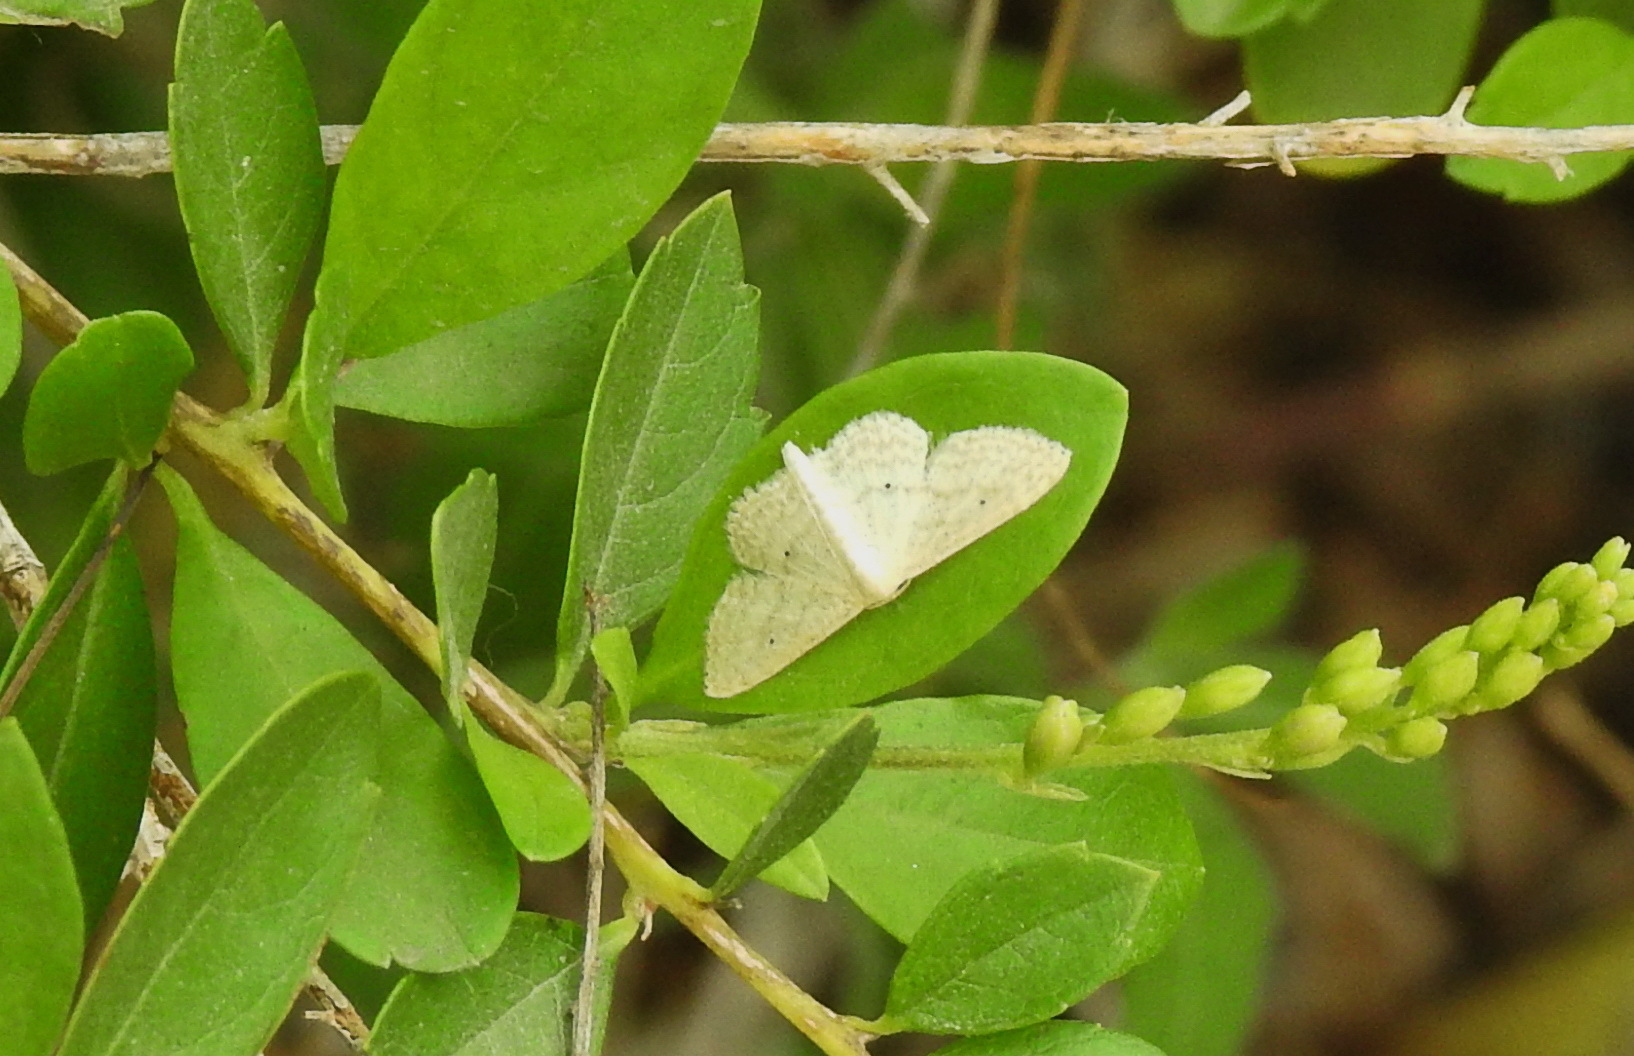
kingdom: Animalia
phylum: Arthropoda
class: Insecta
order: Lepidoptera
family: Geometridae
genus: Scopula
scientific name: Scopula benitaria
